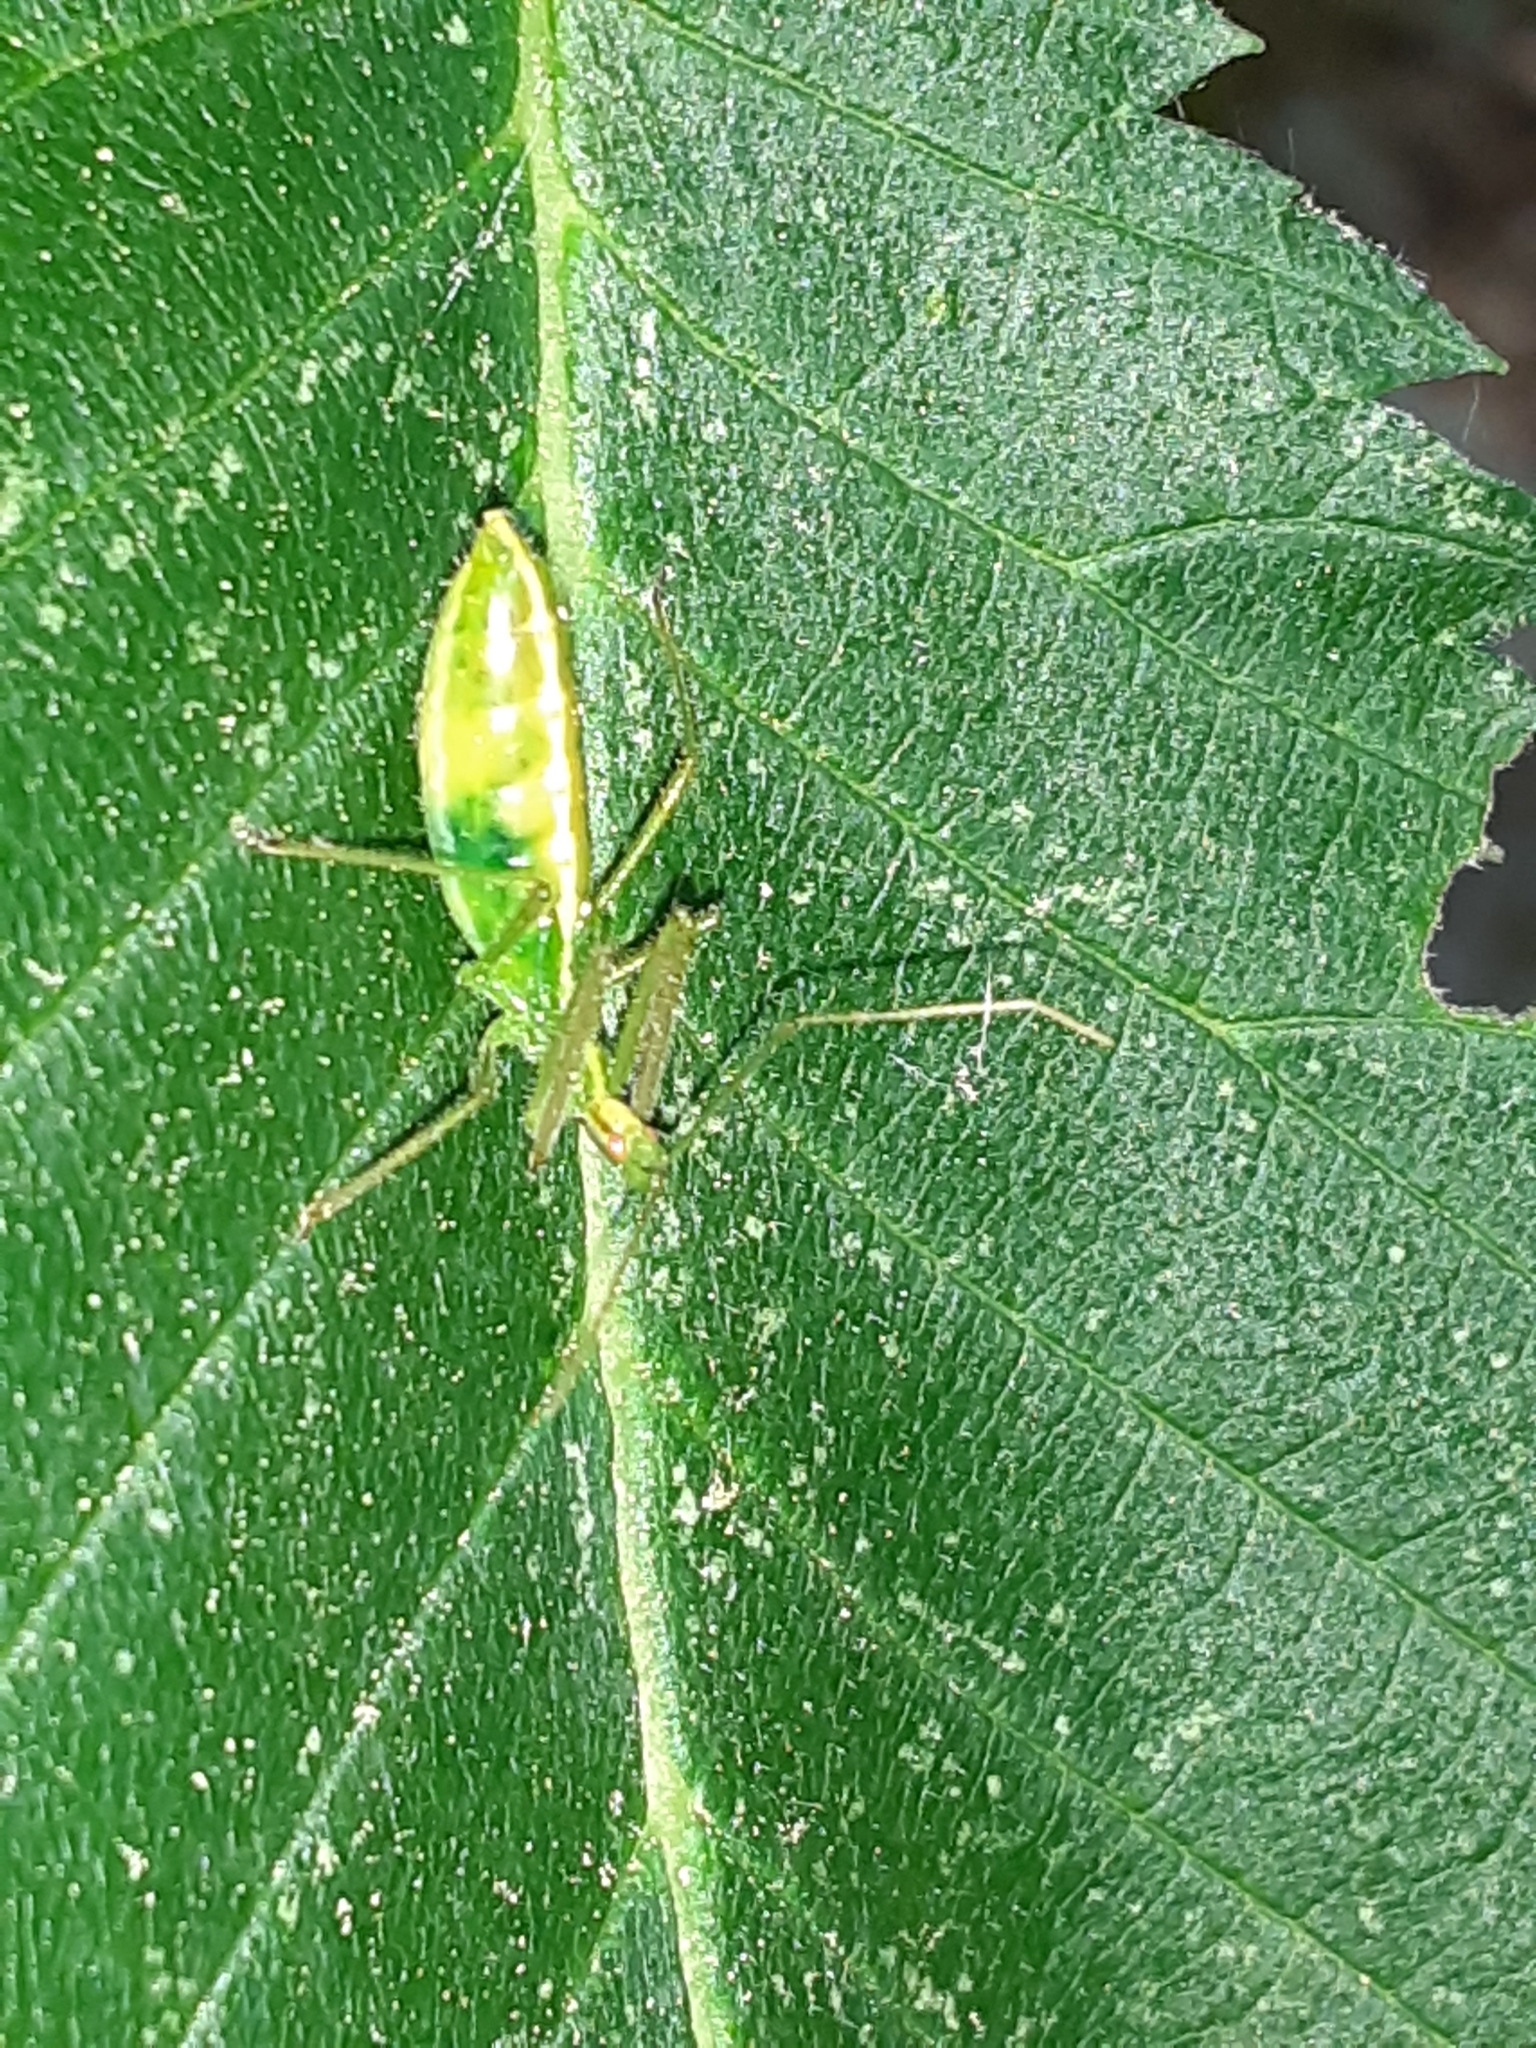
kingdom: Animalia
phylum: Arthropoda
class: Insecta
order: Hemiptera
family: Reduviidae
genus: Zelus
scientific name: Zelus luridus
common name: Pale green assassin bug
